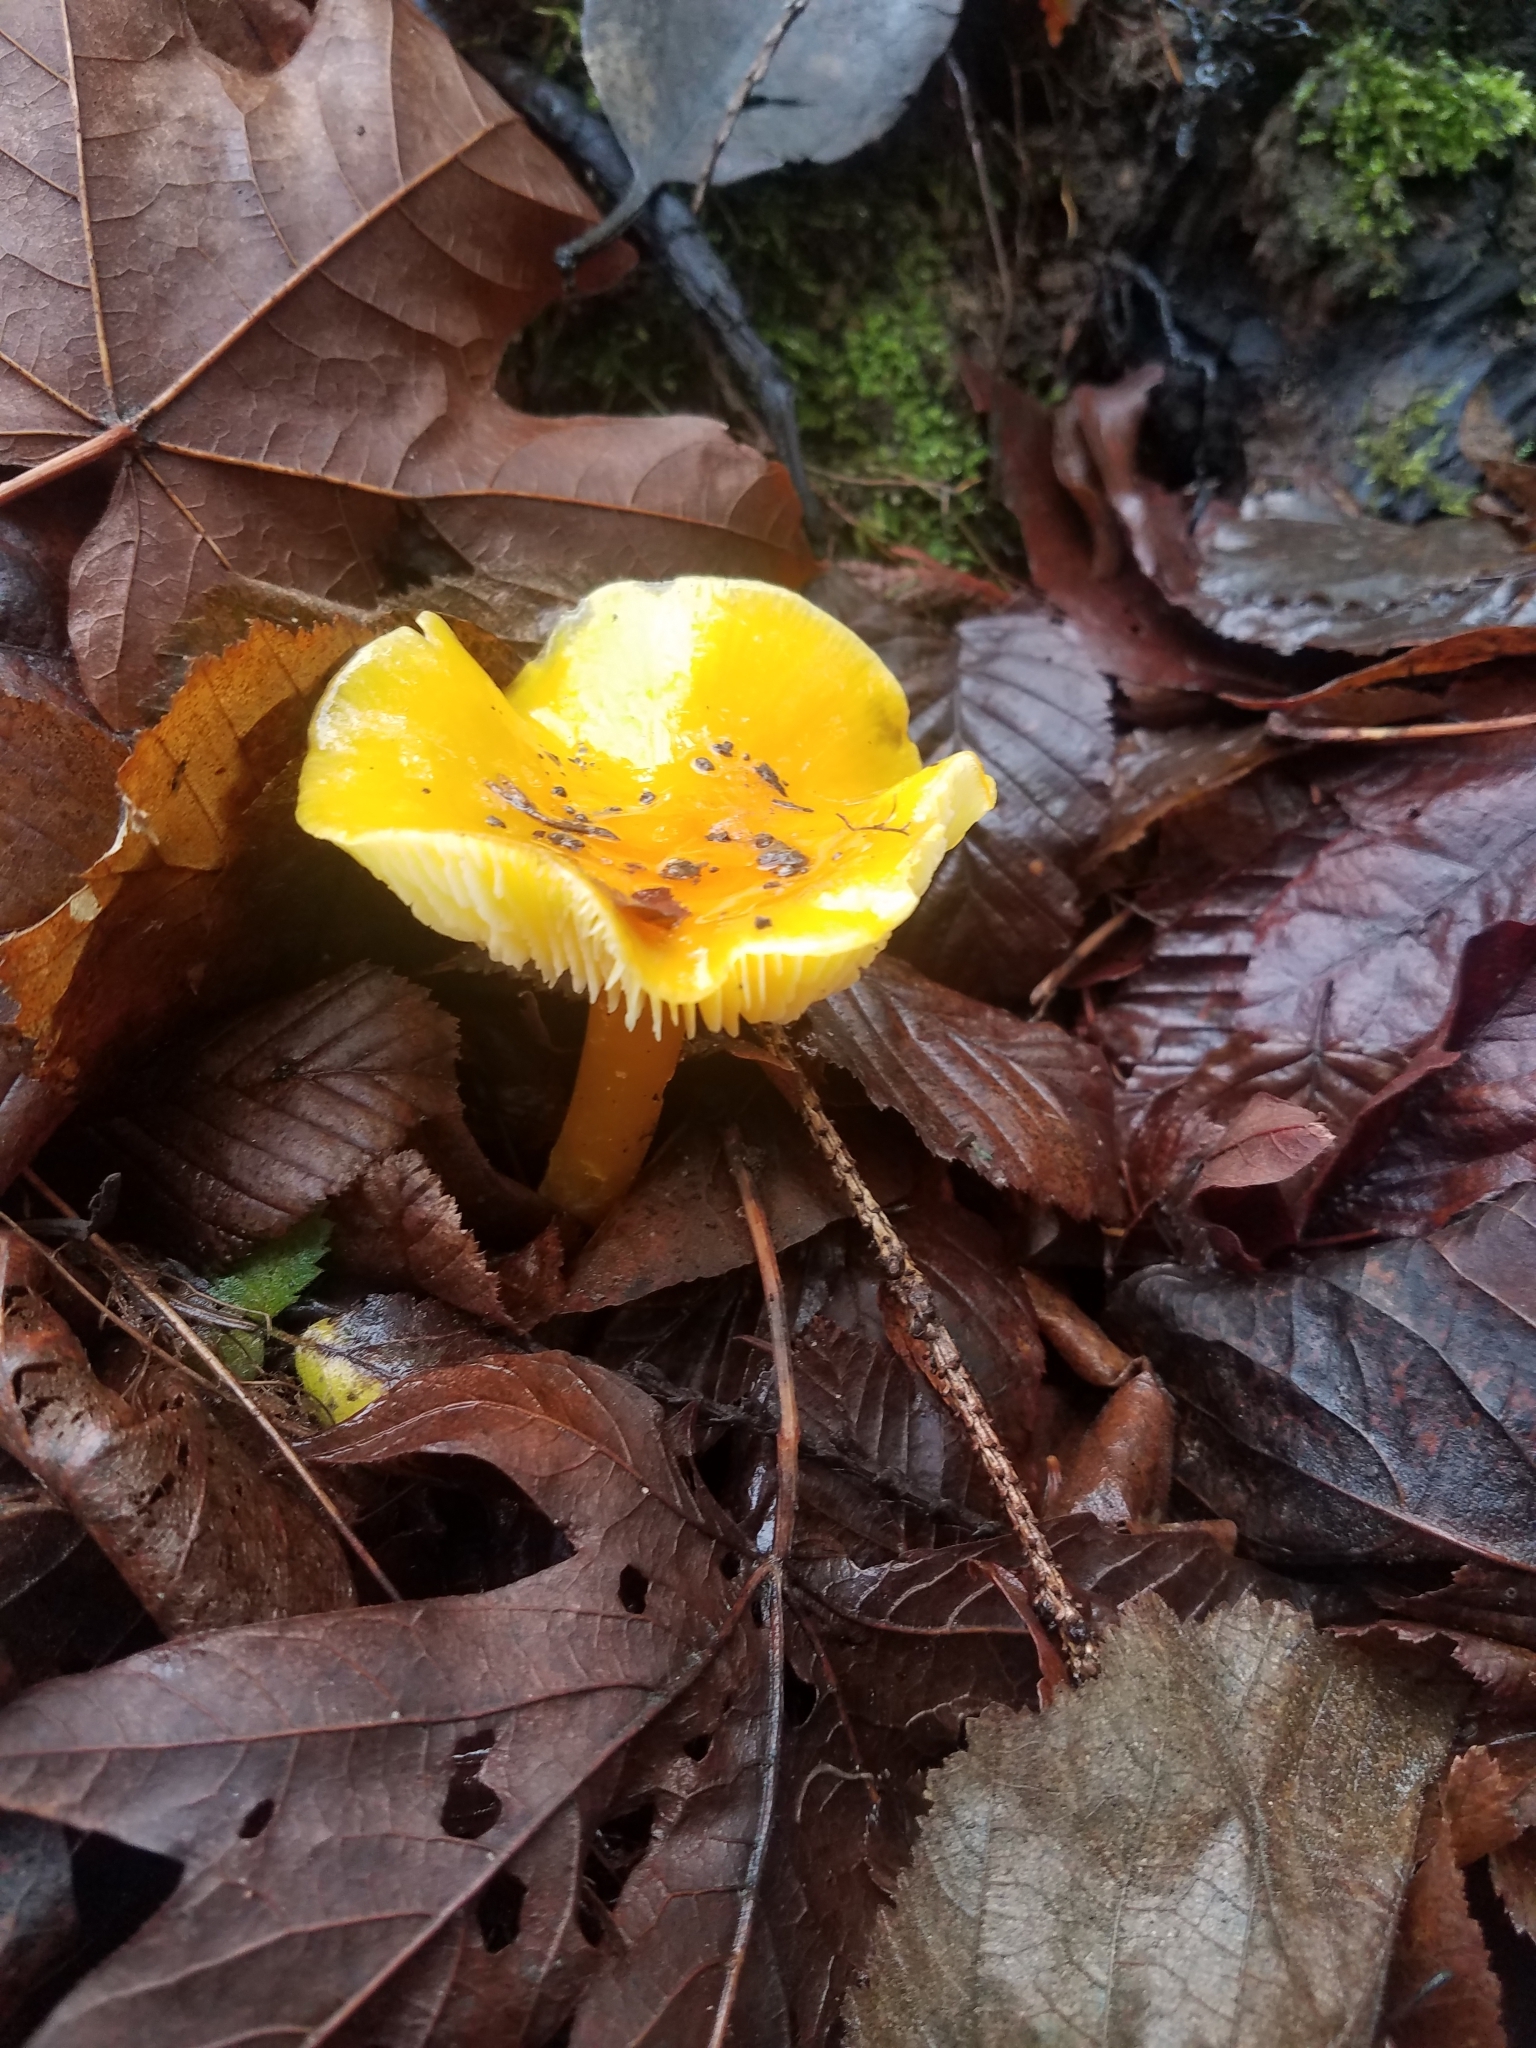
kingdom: Fungi
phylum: Basidiomycota
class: Agaricomycetes
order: Agaricales
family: Hygrophoraceae
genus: Hygrocybe
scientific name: Hygrocybe flavescens
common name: Golden waxy cap
